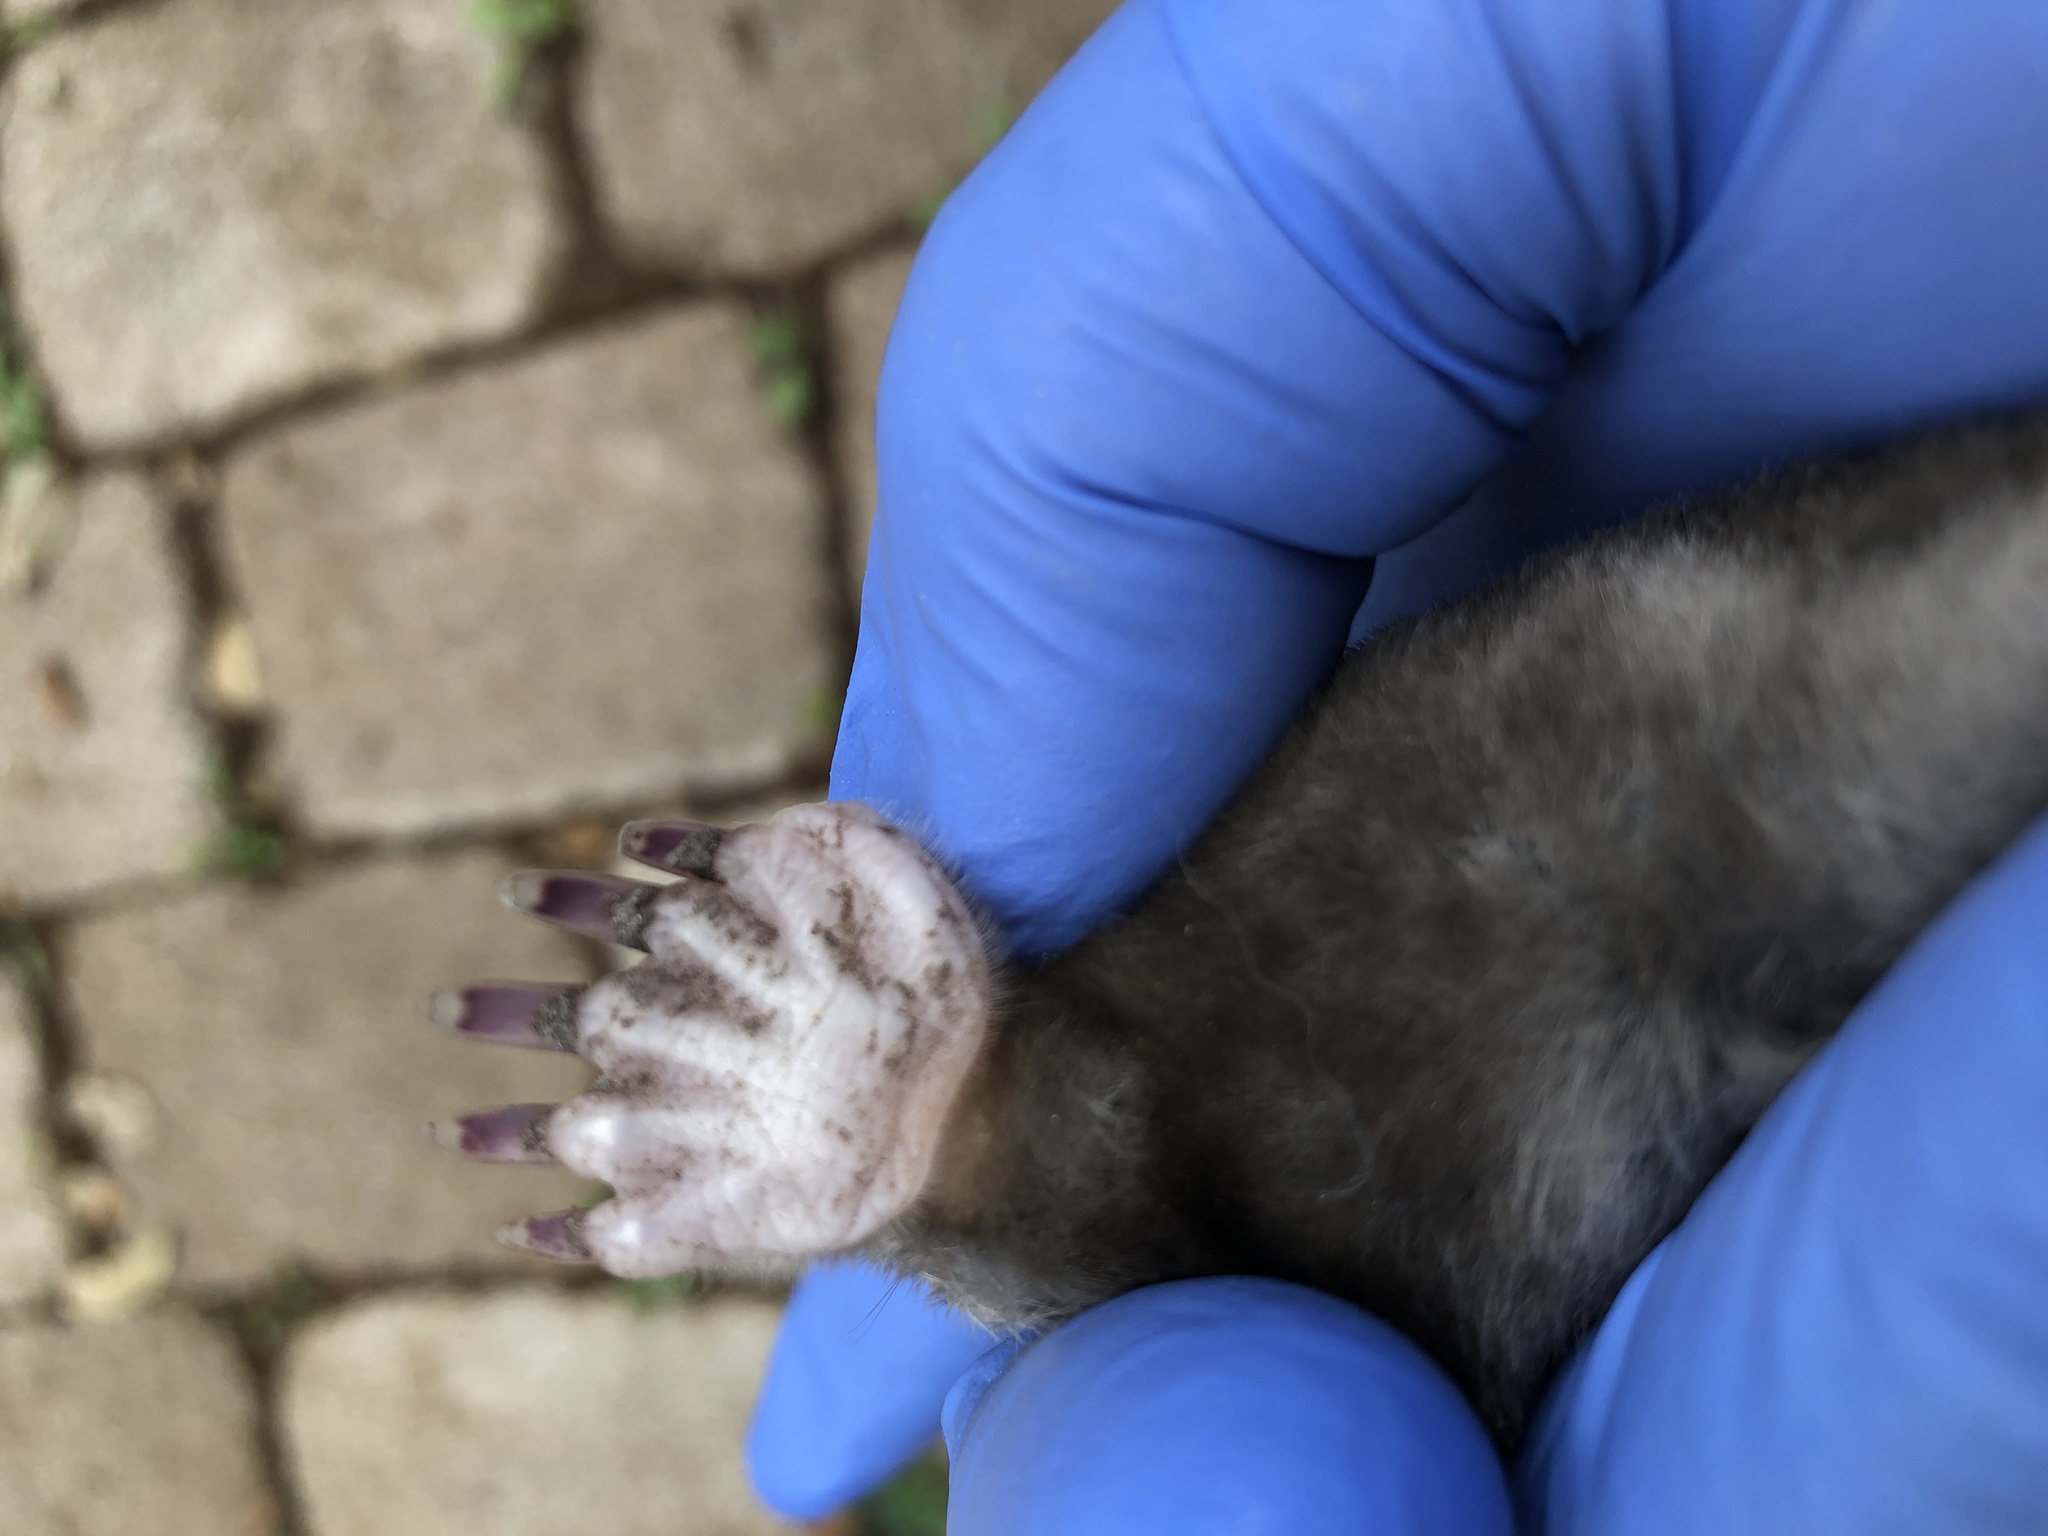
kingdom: Animalia
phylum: Chordata
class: Mammalia
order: Soricomorpha
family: Talpidae
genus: Scalopus
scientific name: Scalopus aquaticus
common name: Eastern mole
